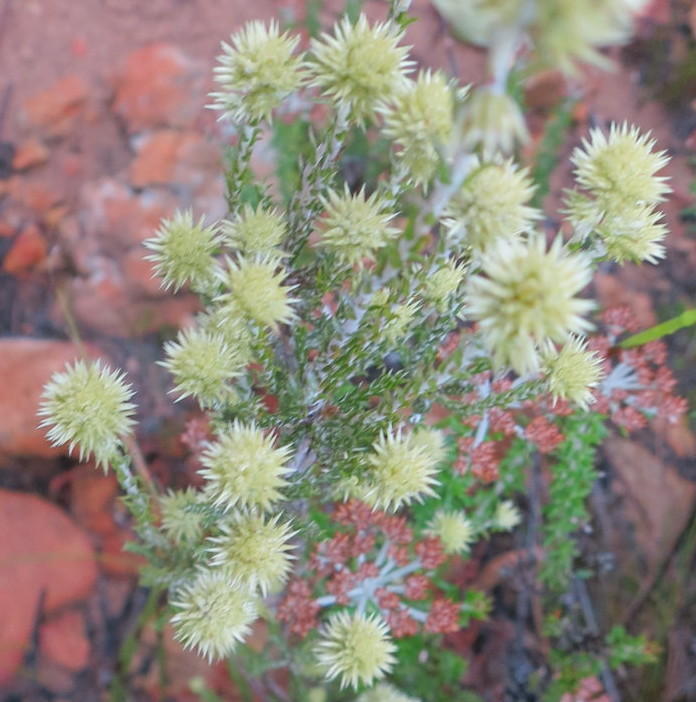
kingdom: Plantae
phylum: Tracheophyta
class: Magnoliopsida
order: Asterales
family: Asteraceae
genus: Seriphium
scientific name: Seriphium spirale
